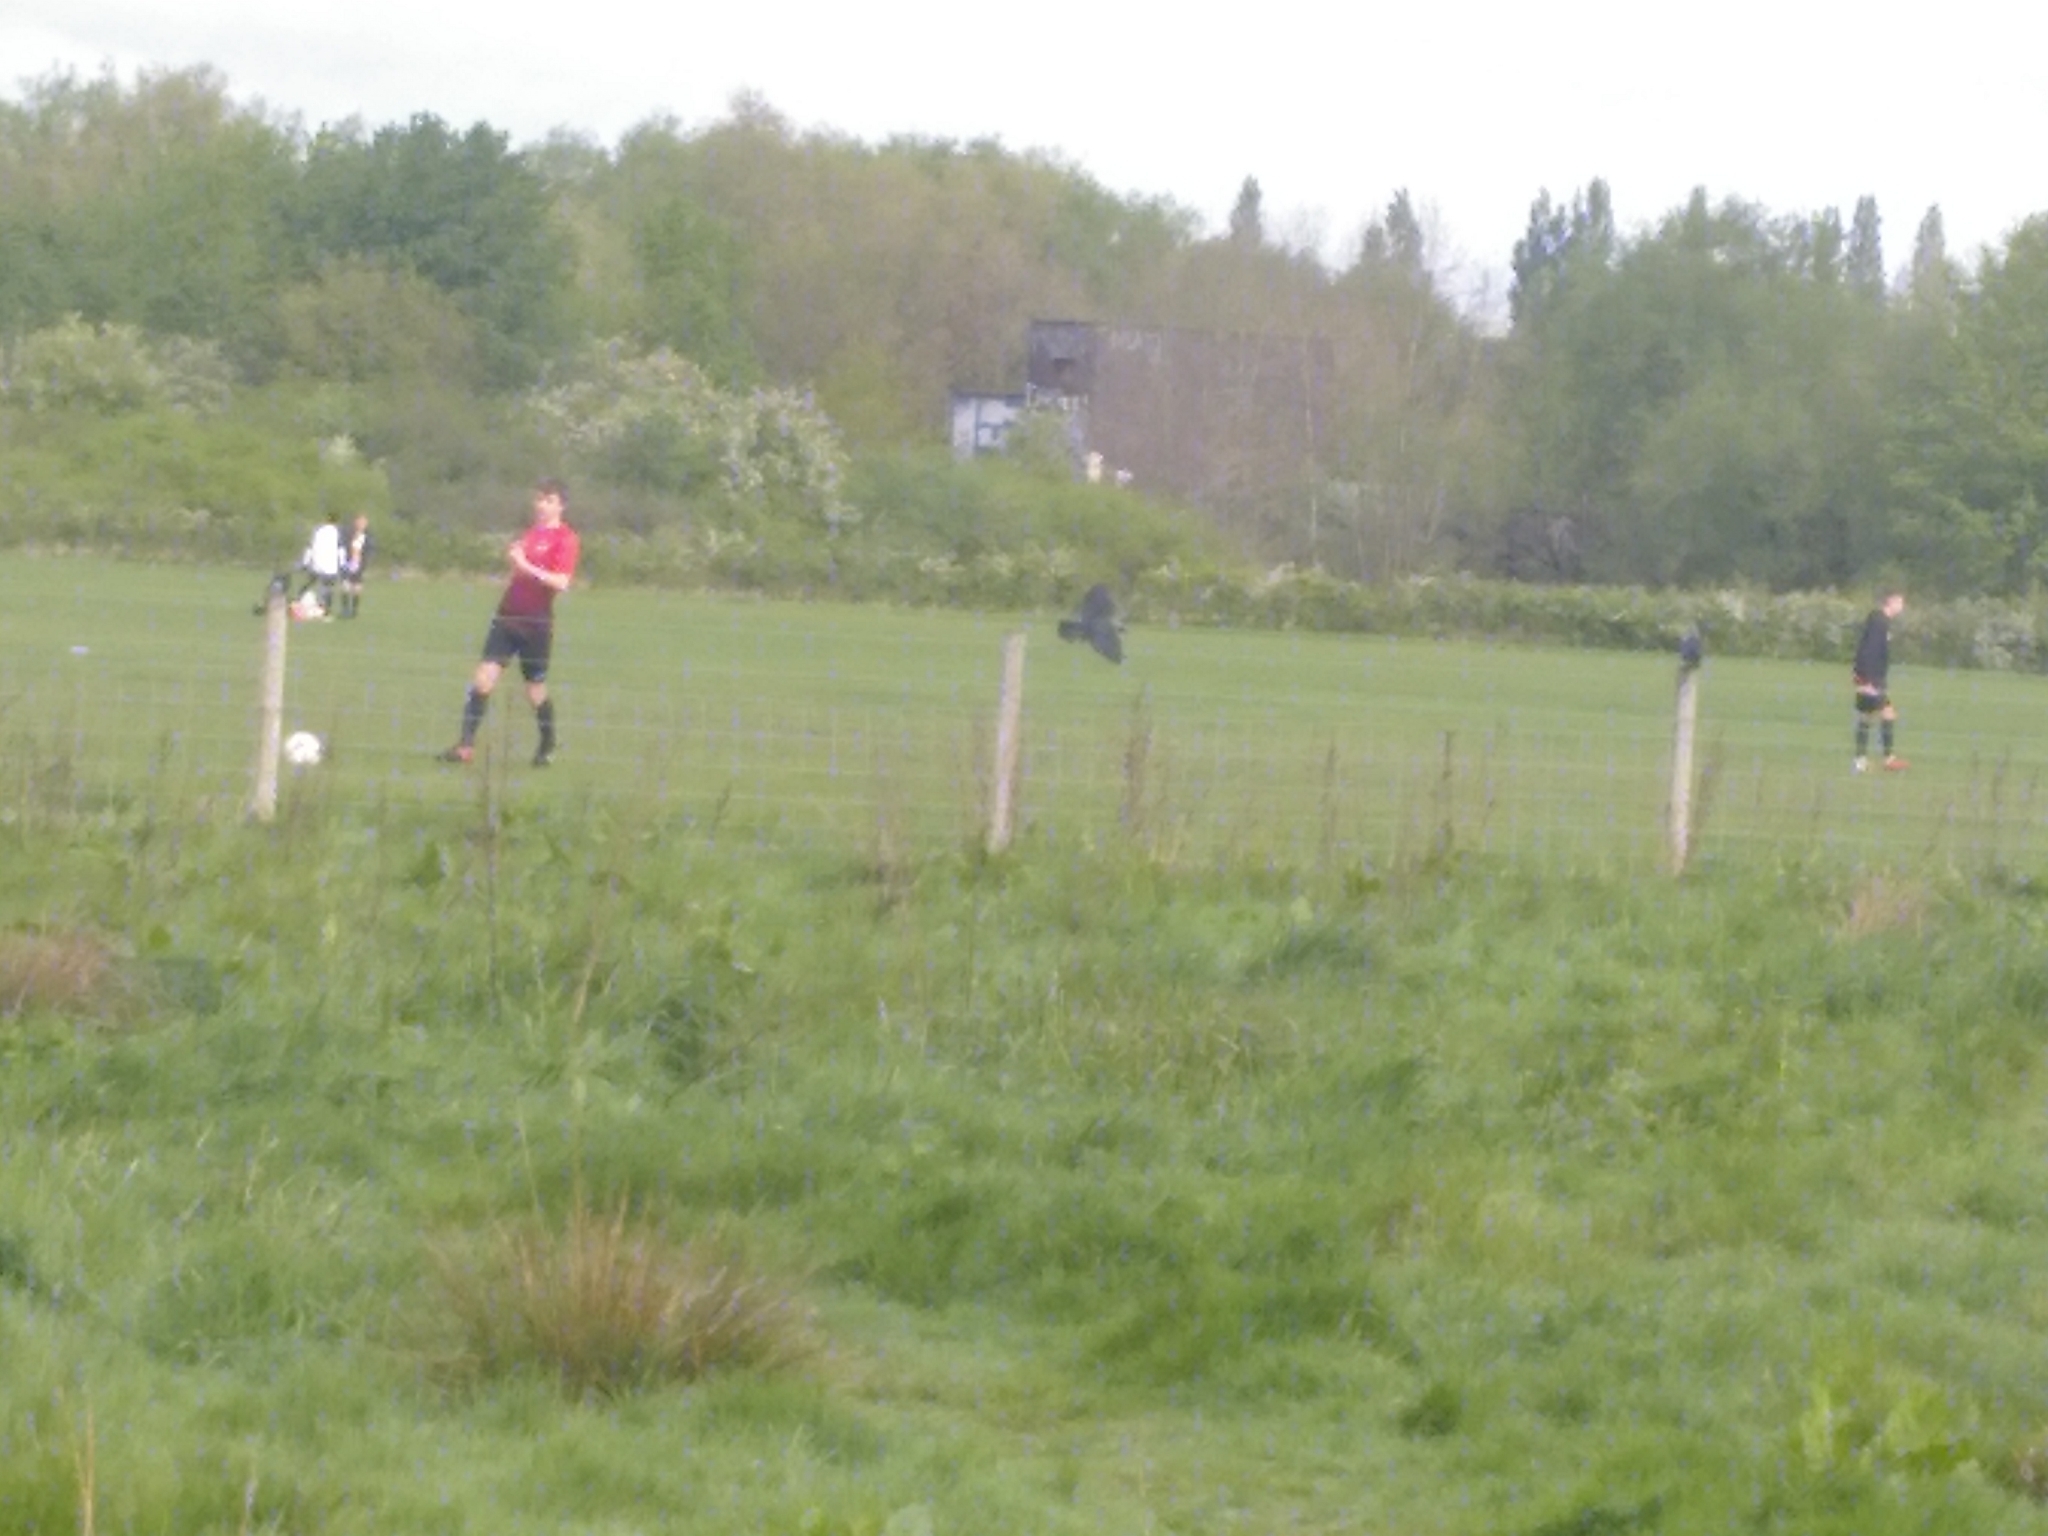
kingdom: Animalia
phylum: Chordata
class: Aves
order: Passeriformes
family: Corvidae
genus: Coloeus
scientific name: Coloeus monedula
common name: Western jackdaw
